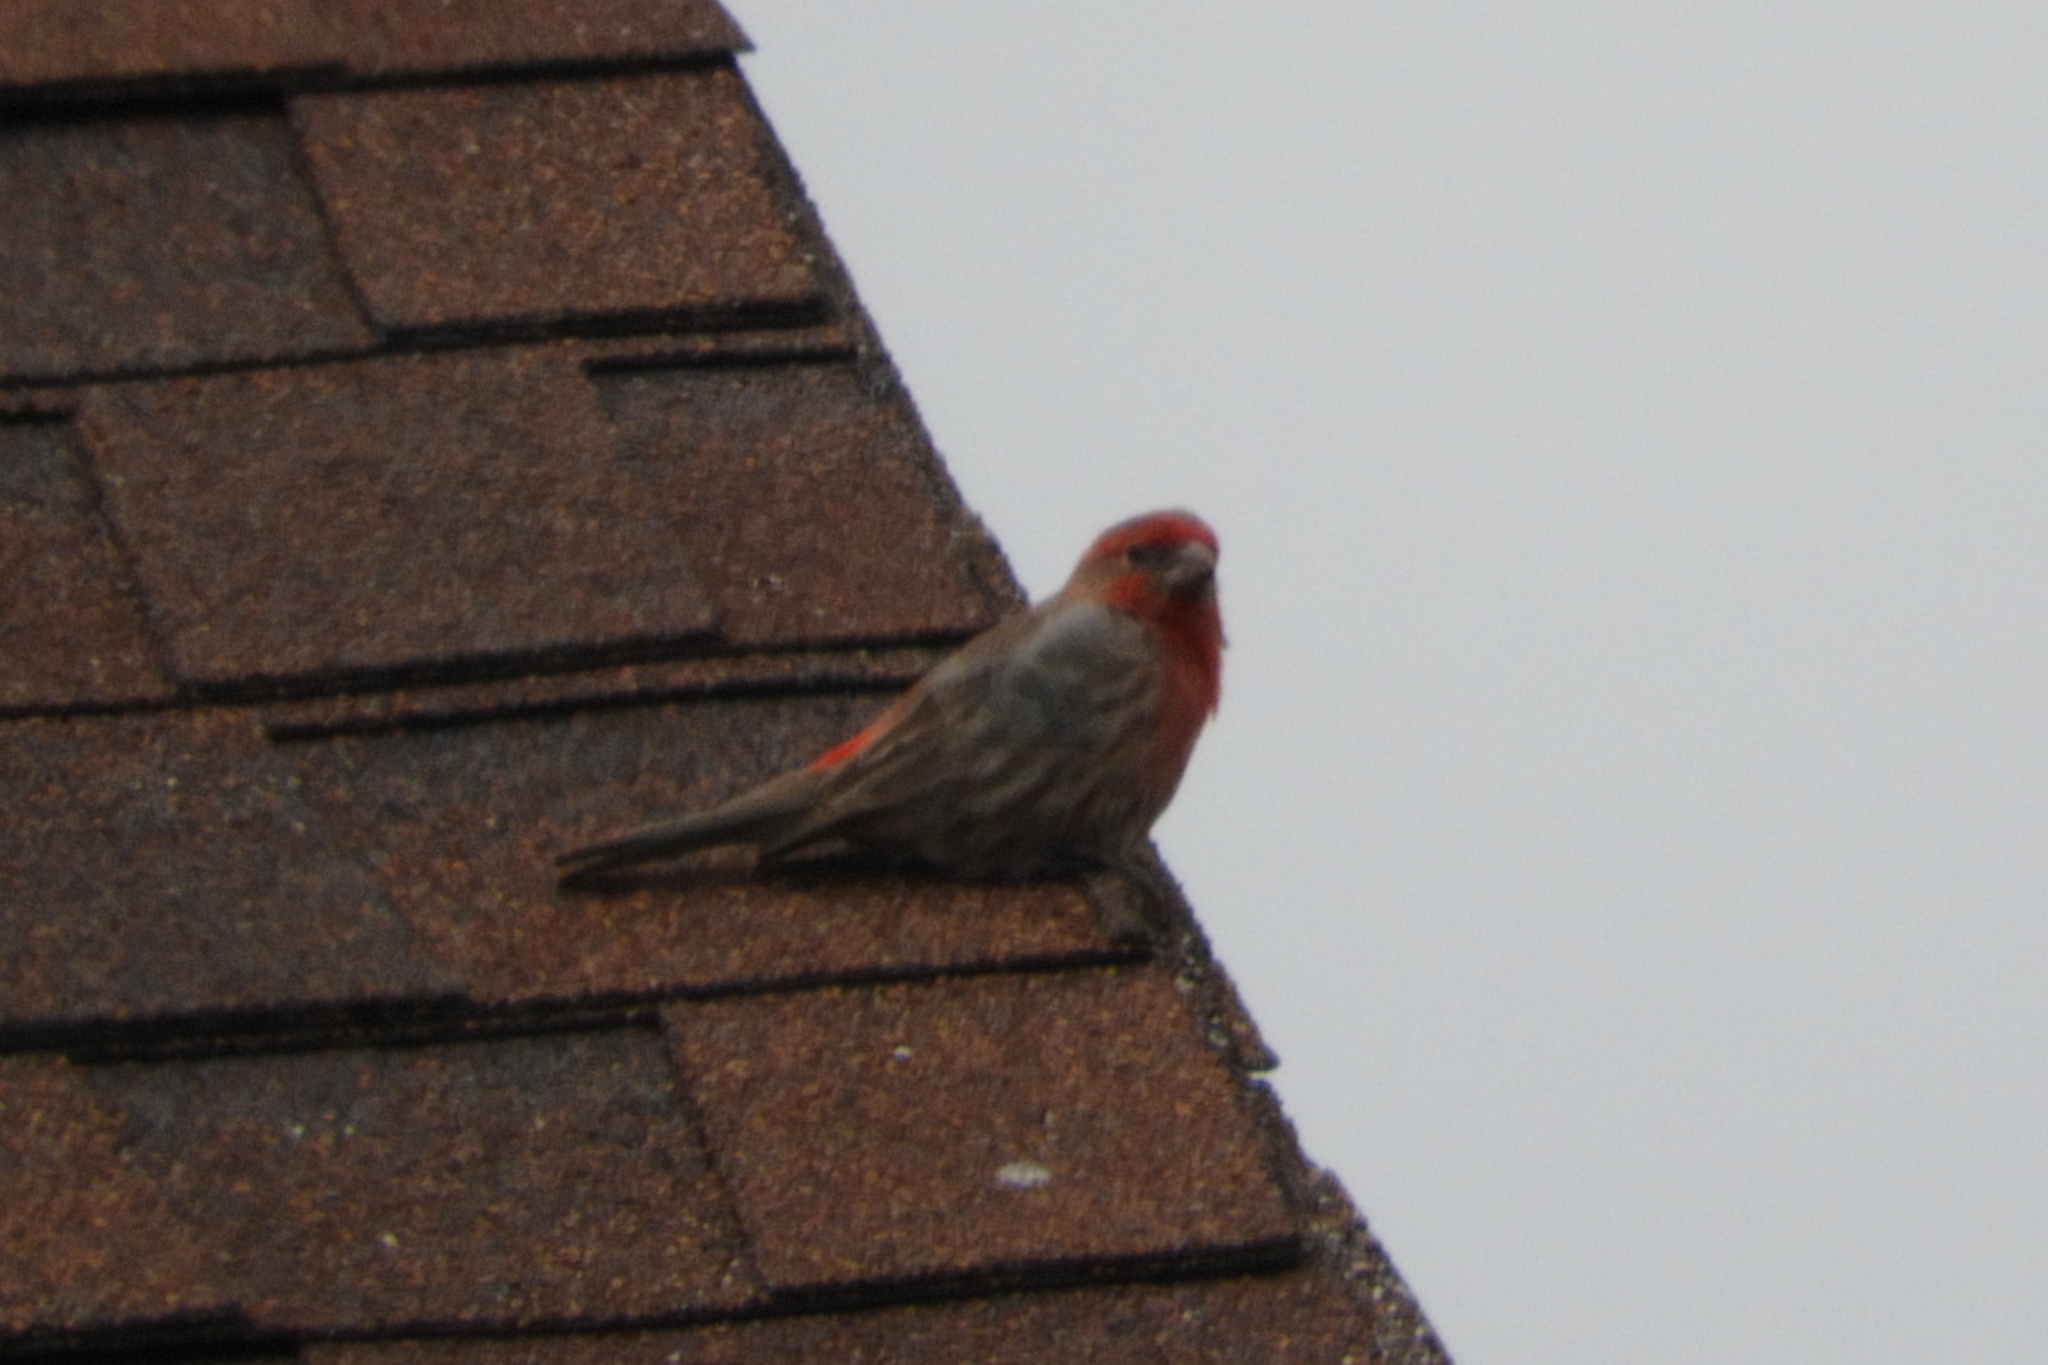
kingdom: Animalia
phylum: Chordata
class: Aves
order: Passeriformes
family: Fringillidae
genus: Haemorhous
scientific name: Haemorhous mexicanus
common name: House finch
